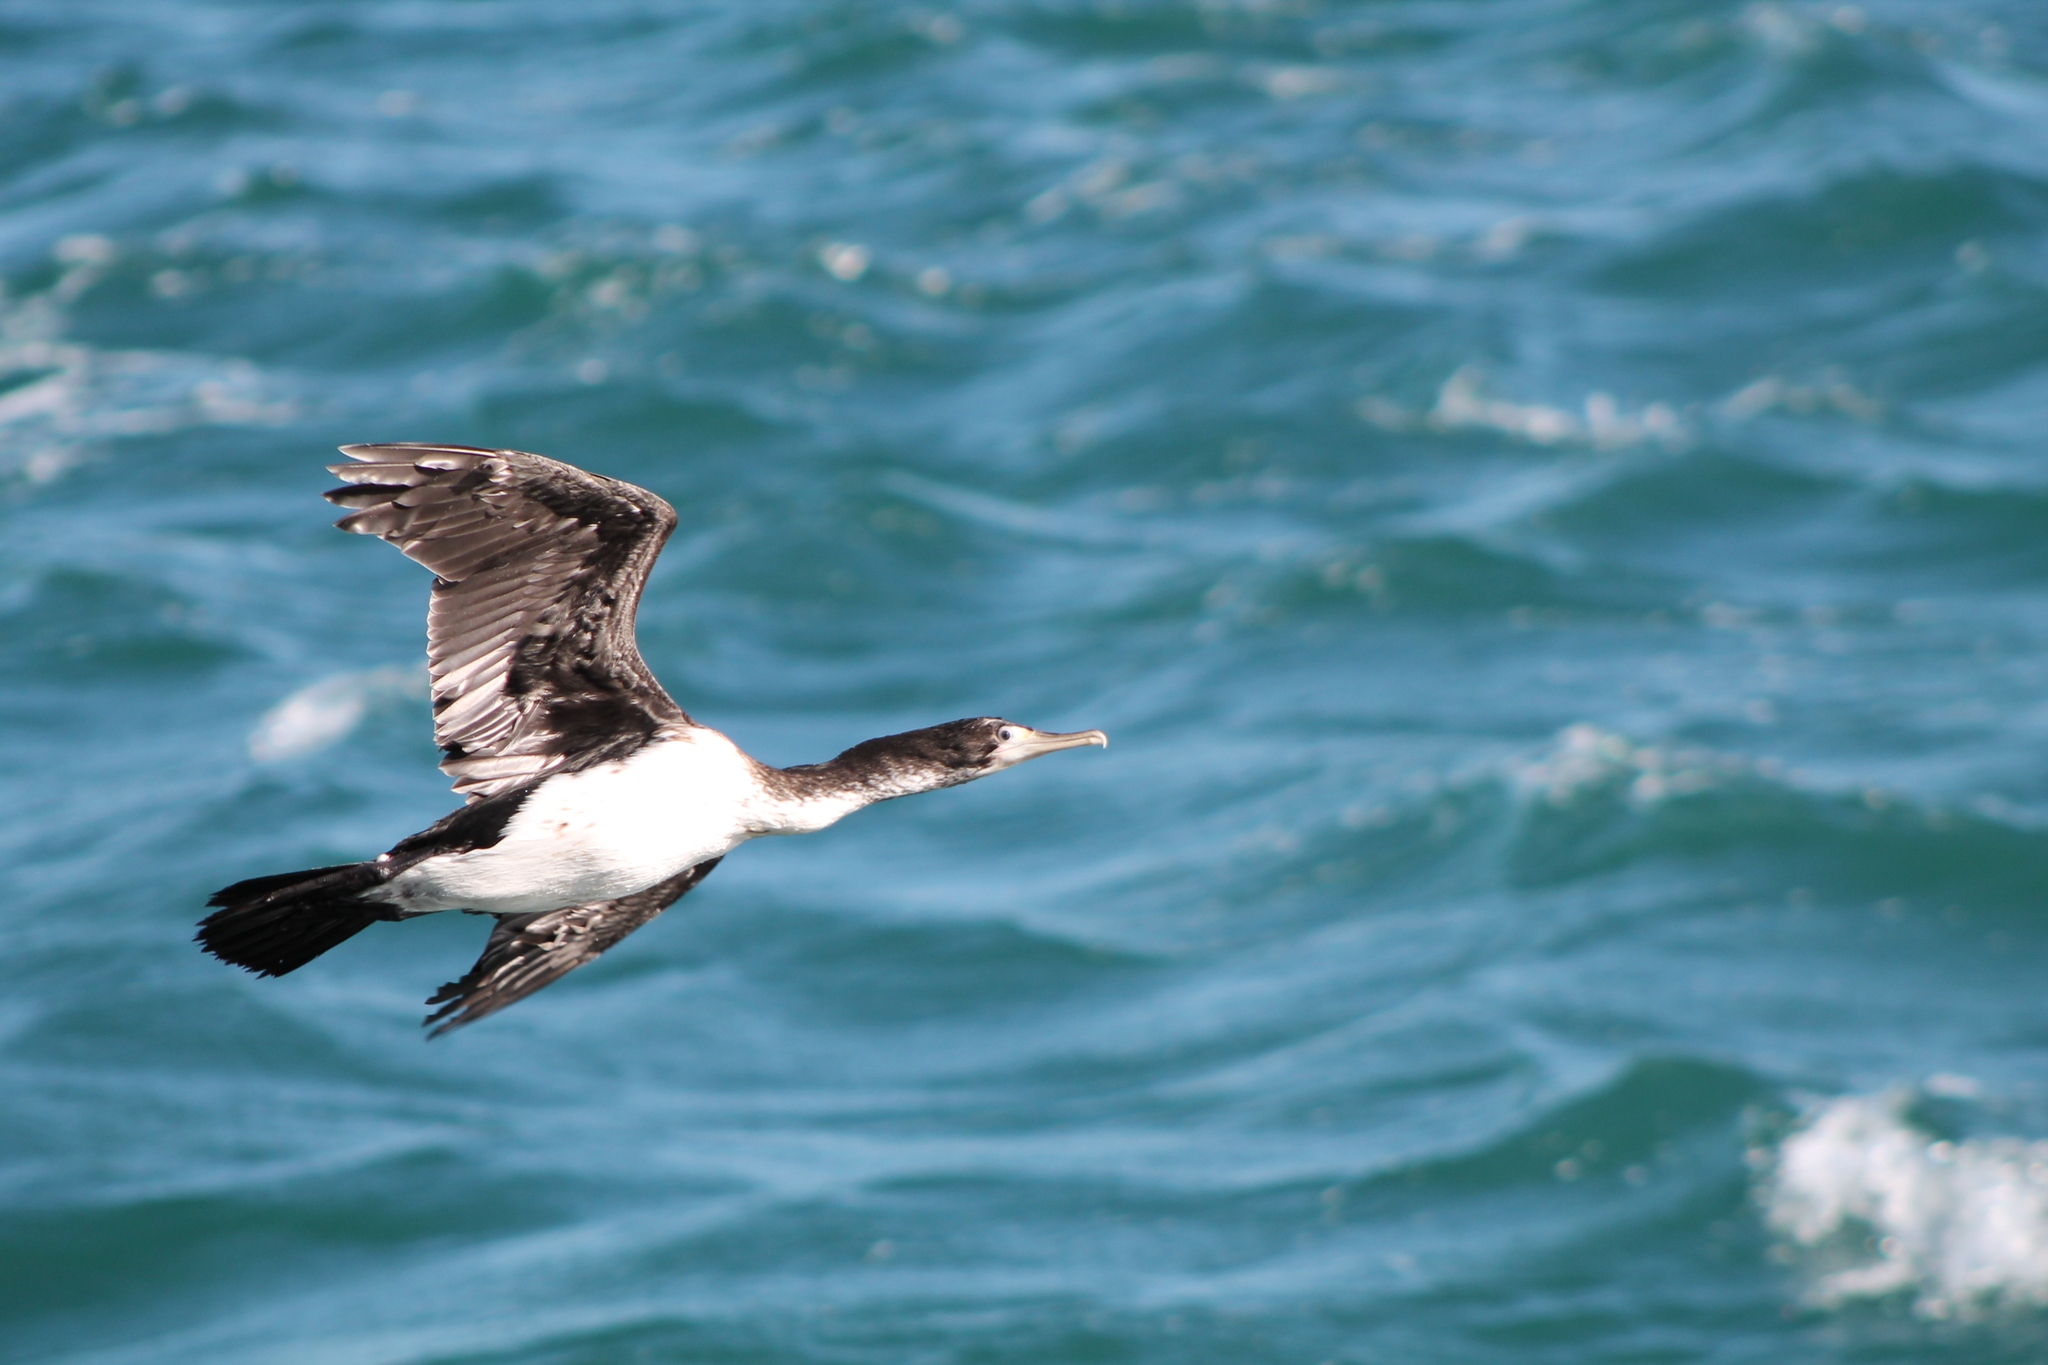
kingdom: Animalia
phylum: Chordata
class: Aves
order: Suliformes
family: Phalacrocoracidae
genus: Phalacrocorax
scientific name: Phalacrocorax varius
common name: Pied cormorant
